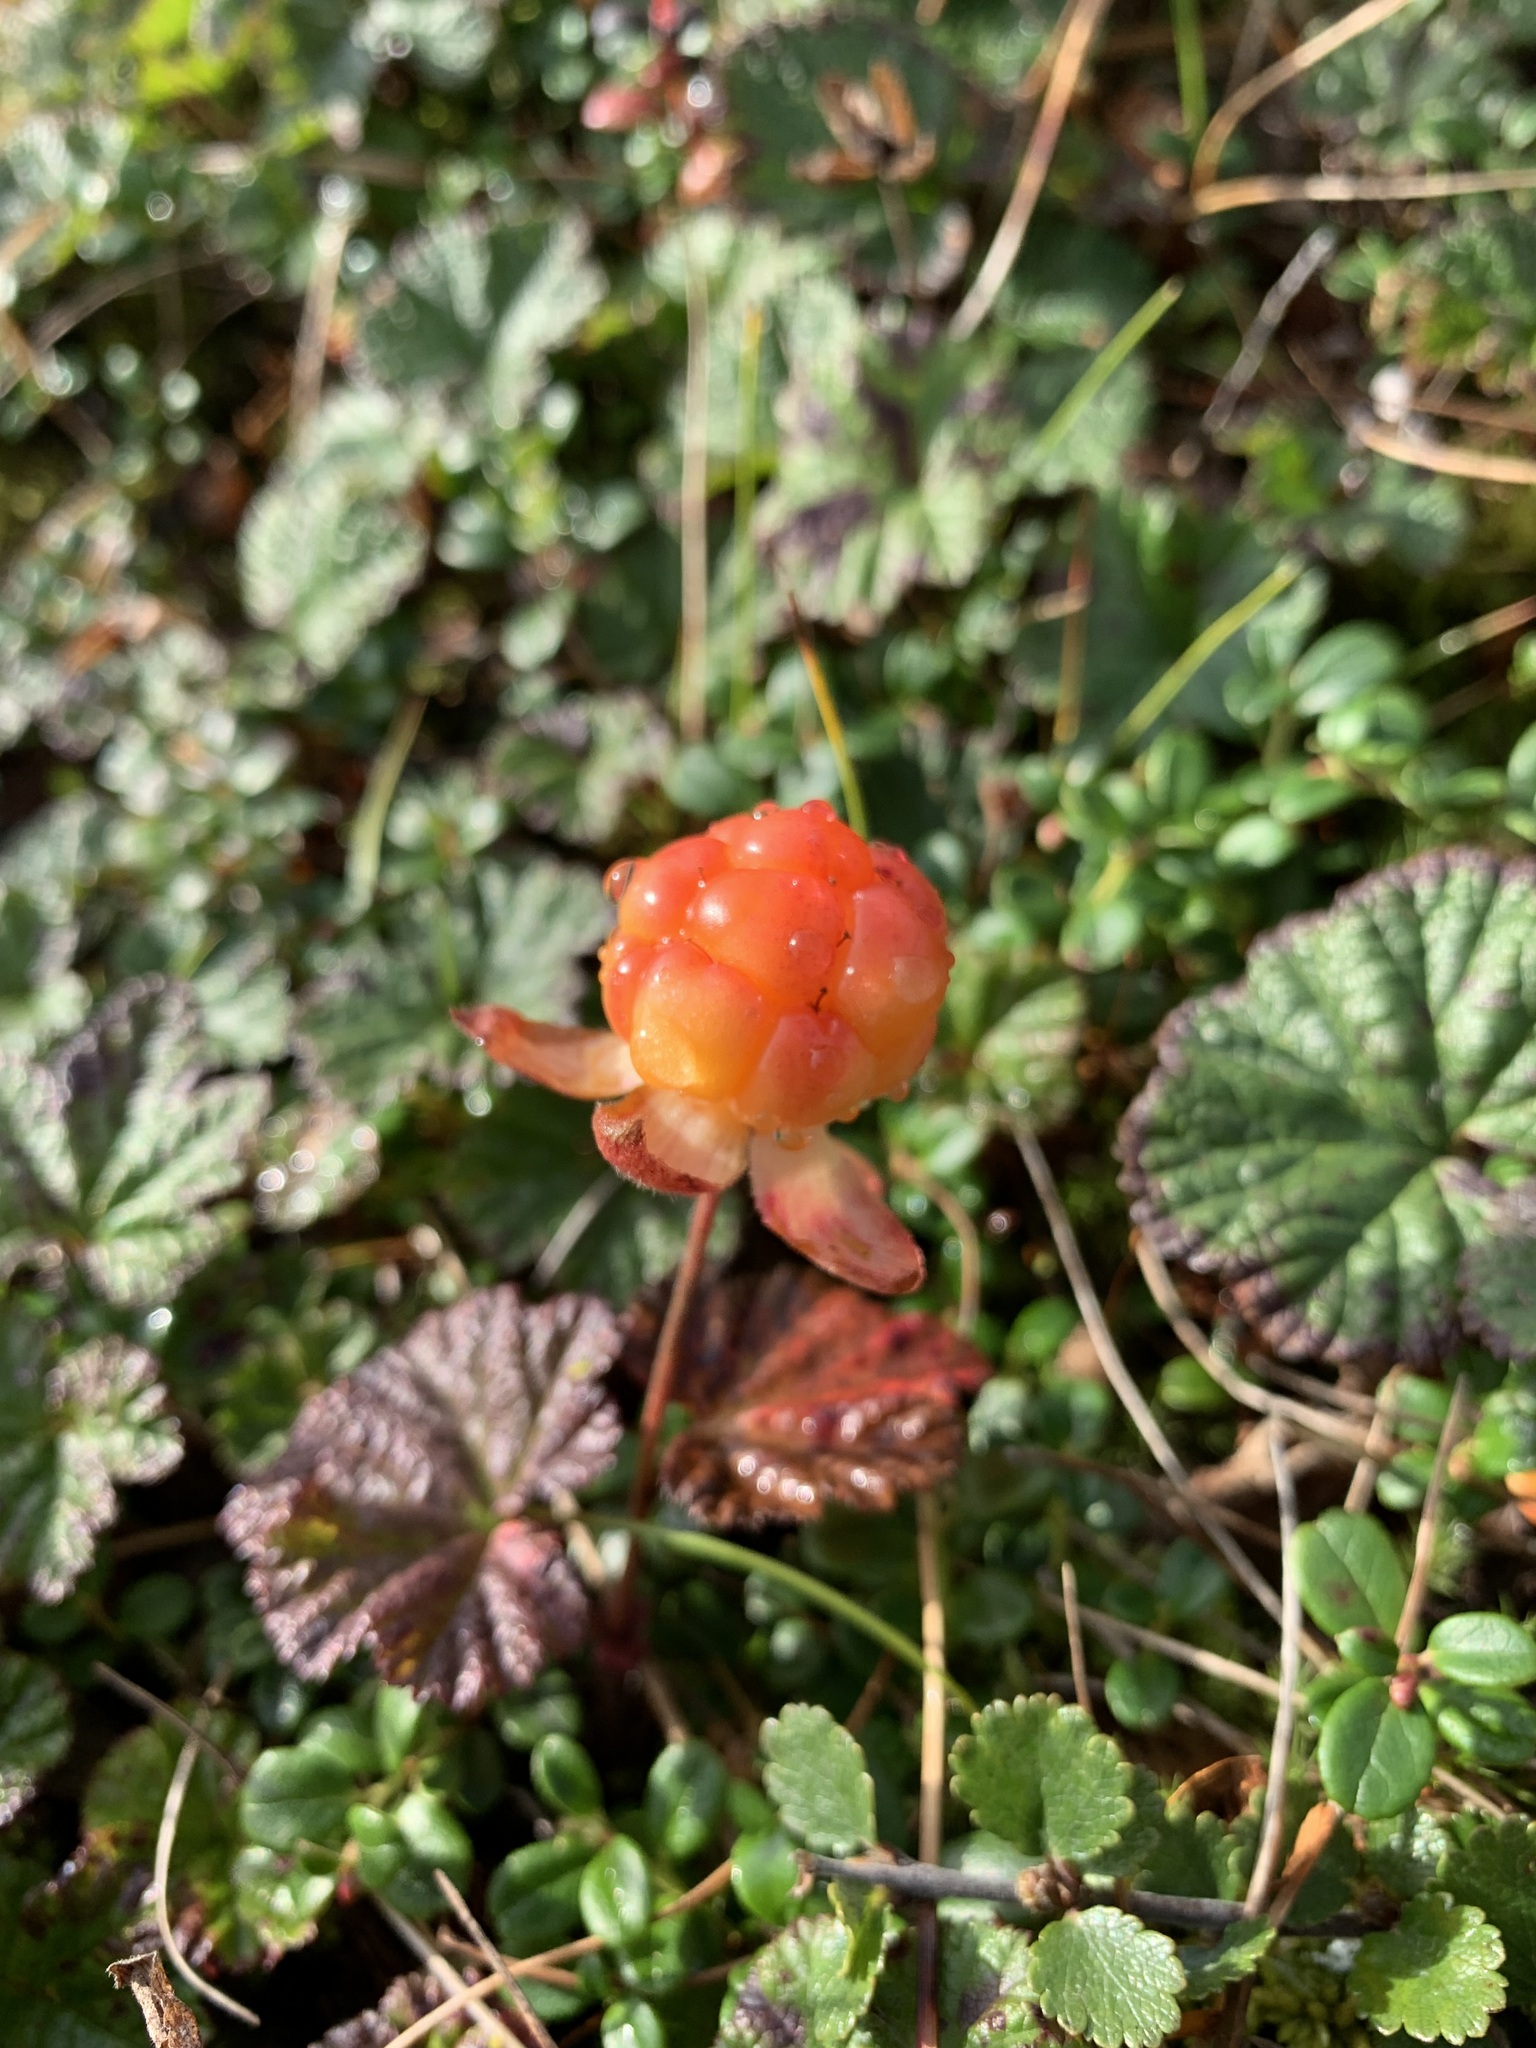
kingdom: Plantae
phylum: Tracheophyta
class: Magnoliopsida
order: Rosales
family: Rosaceae
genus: Rubus
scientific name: Rubus chamaemorus
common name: Cloudberry
